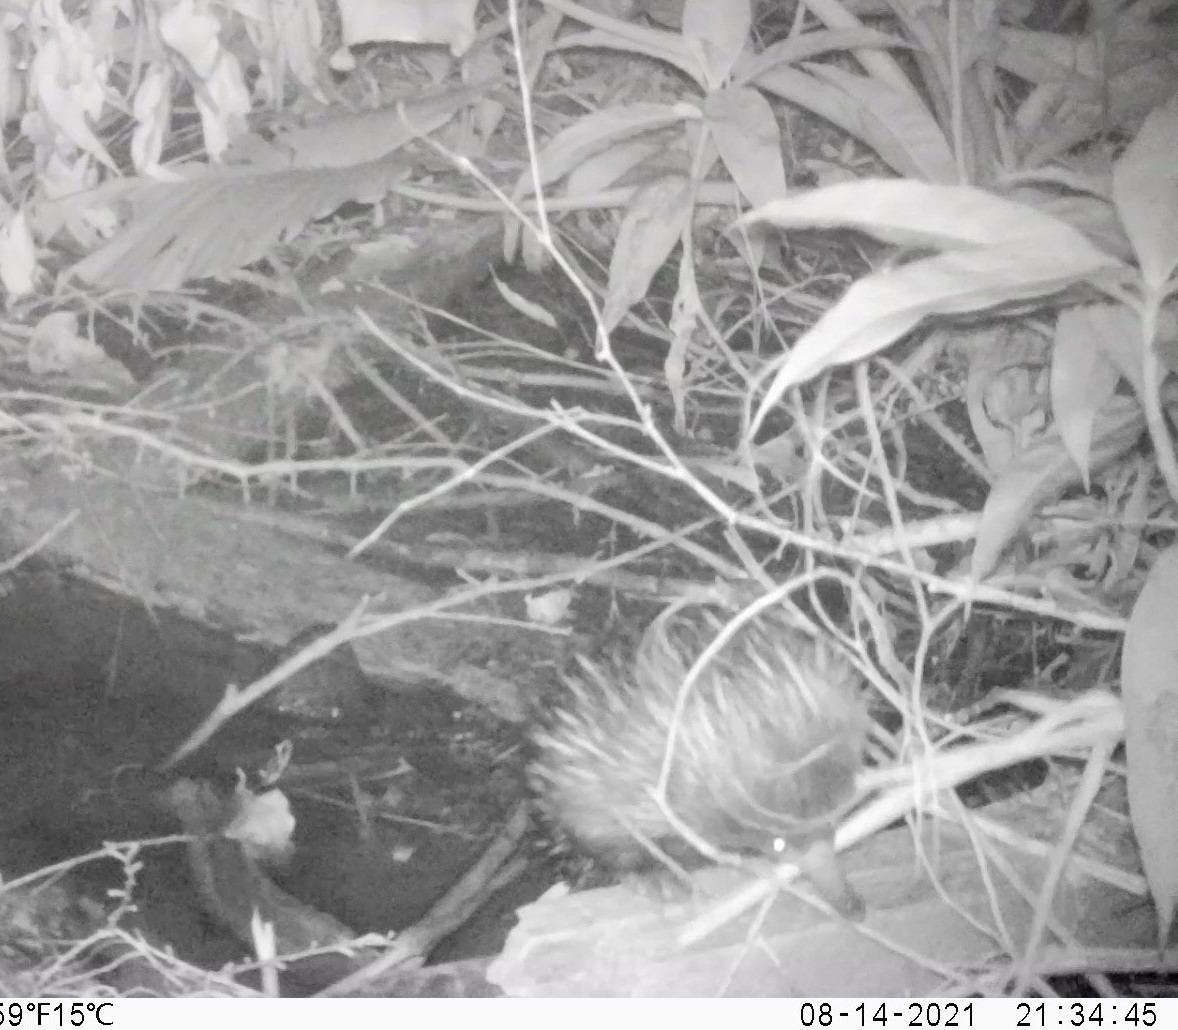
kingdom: Animalia
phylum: Chordata
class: Mammalia
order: Monotremata
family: Tachyglossidae
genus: Tachyglossus
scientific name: Tachyglossus aculeatus
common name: Short-beaked echidna
